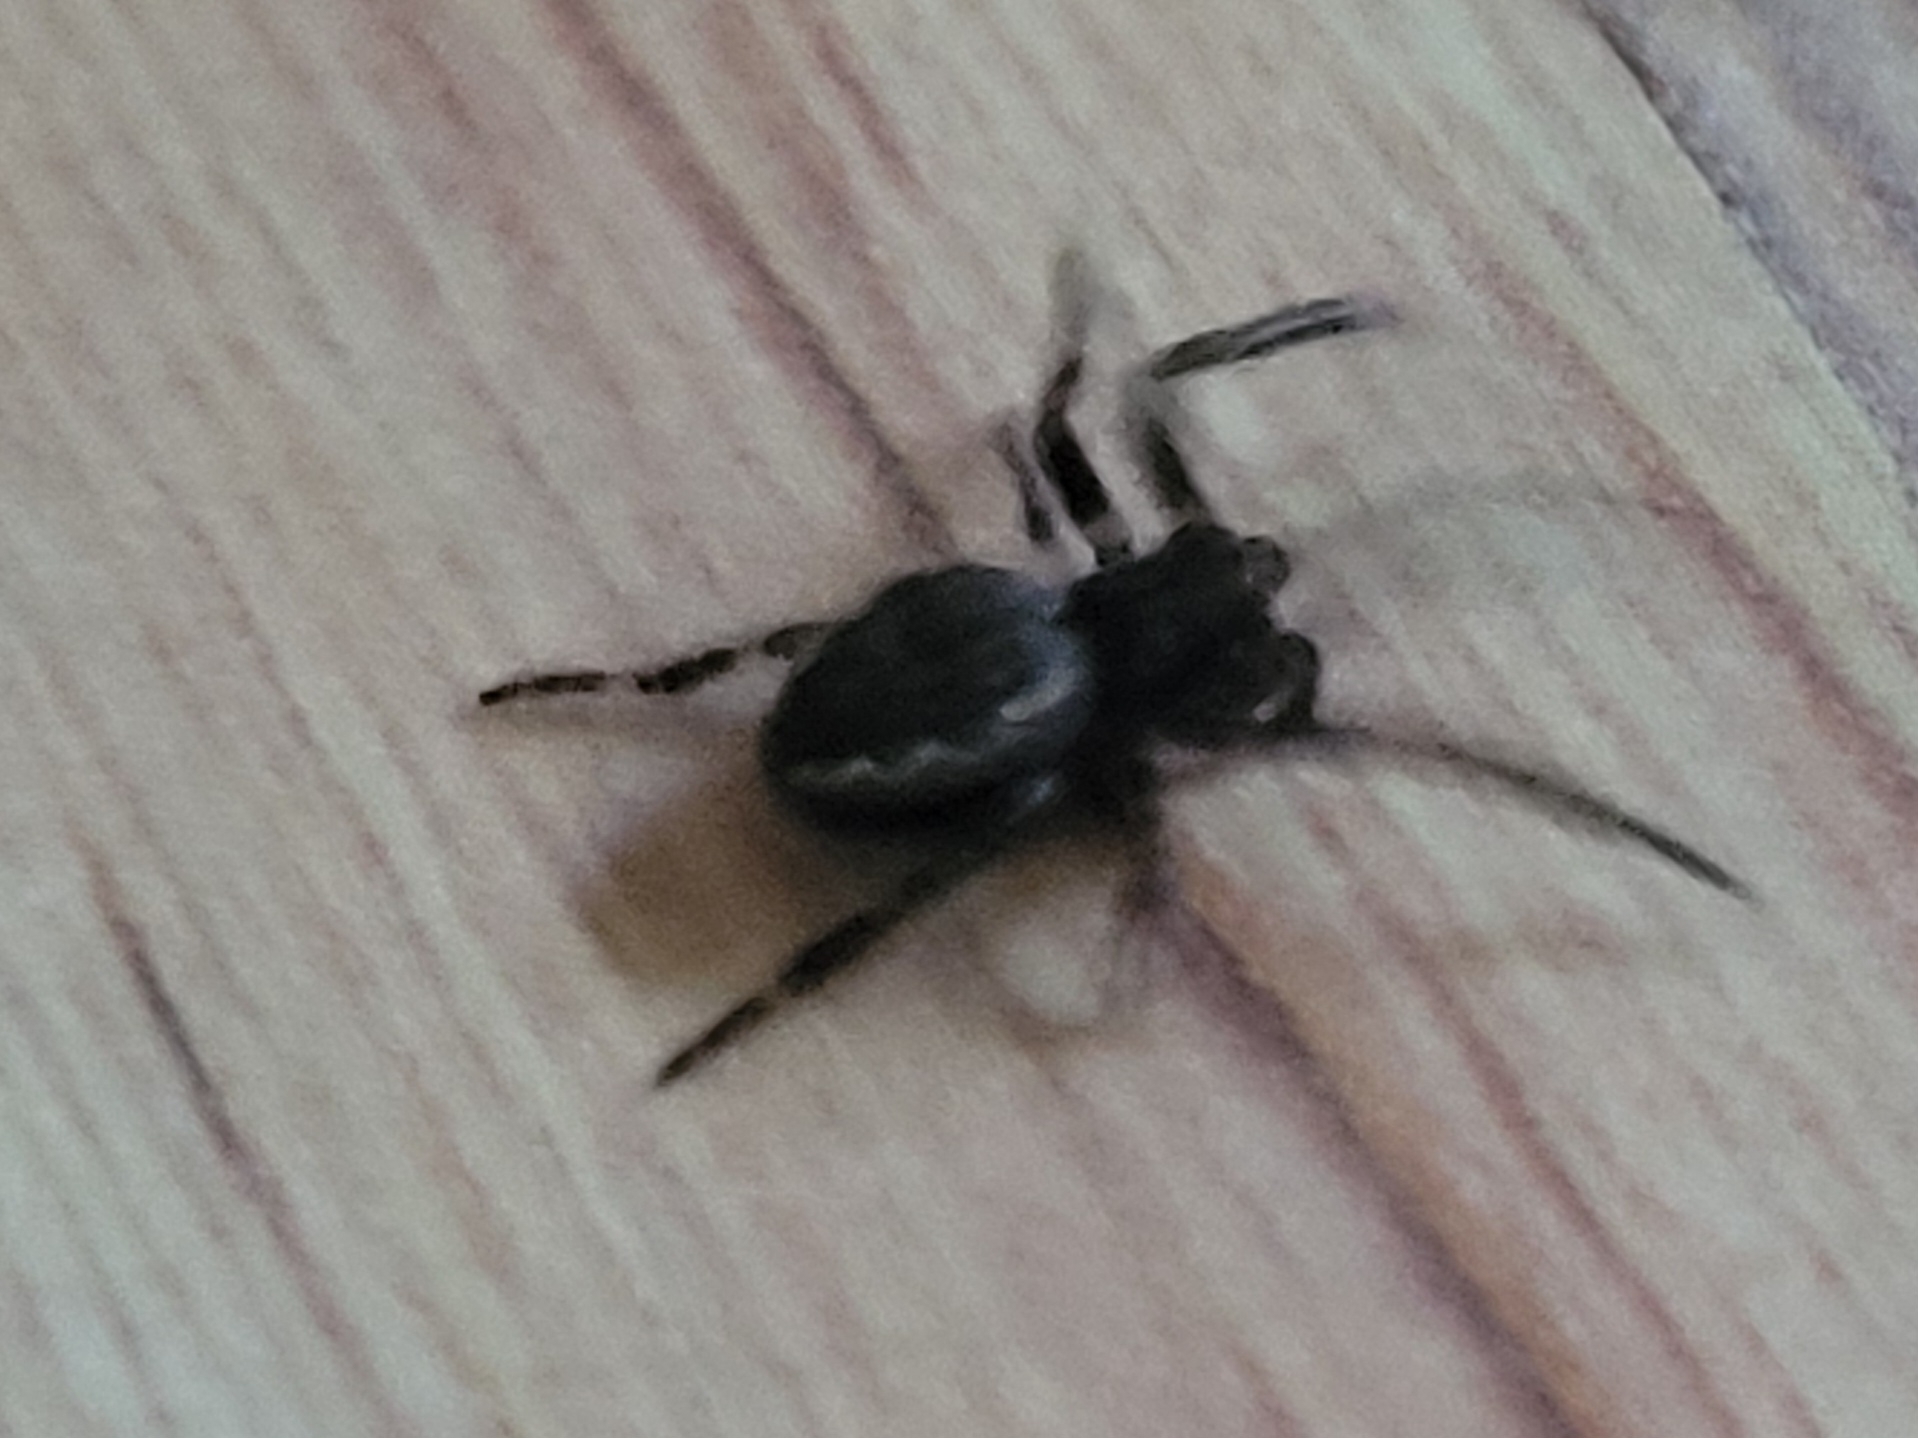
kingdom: Animalia
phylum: Arthropoda
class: Arachnida
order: Araneae
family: Araneidae
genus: Nuctenea
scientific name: Nuctenea umbratica
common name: Toad spider
